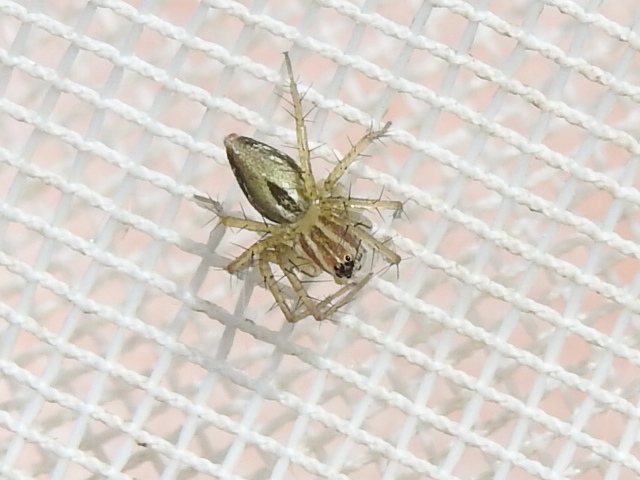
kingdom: Animalia
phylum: Arthropoda
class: Arachnida
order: Araneae
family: Oxyopidae
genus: Oxyopes
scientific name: Oxyopes salticus
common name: Lynx spiders
